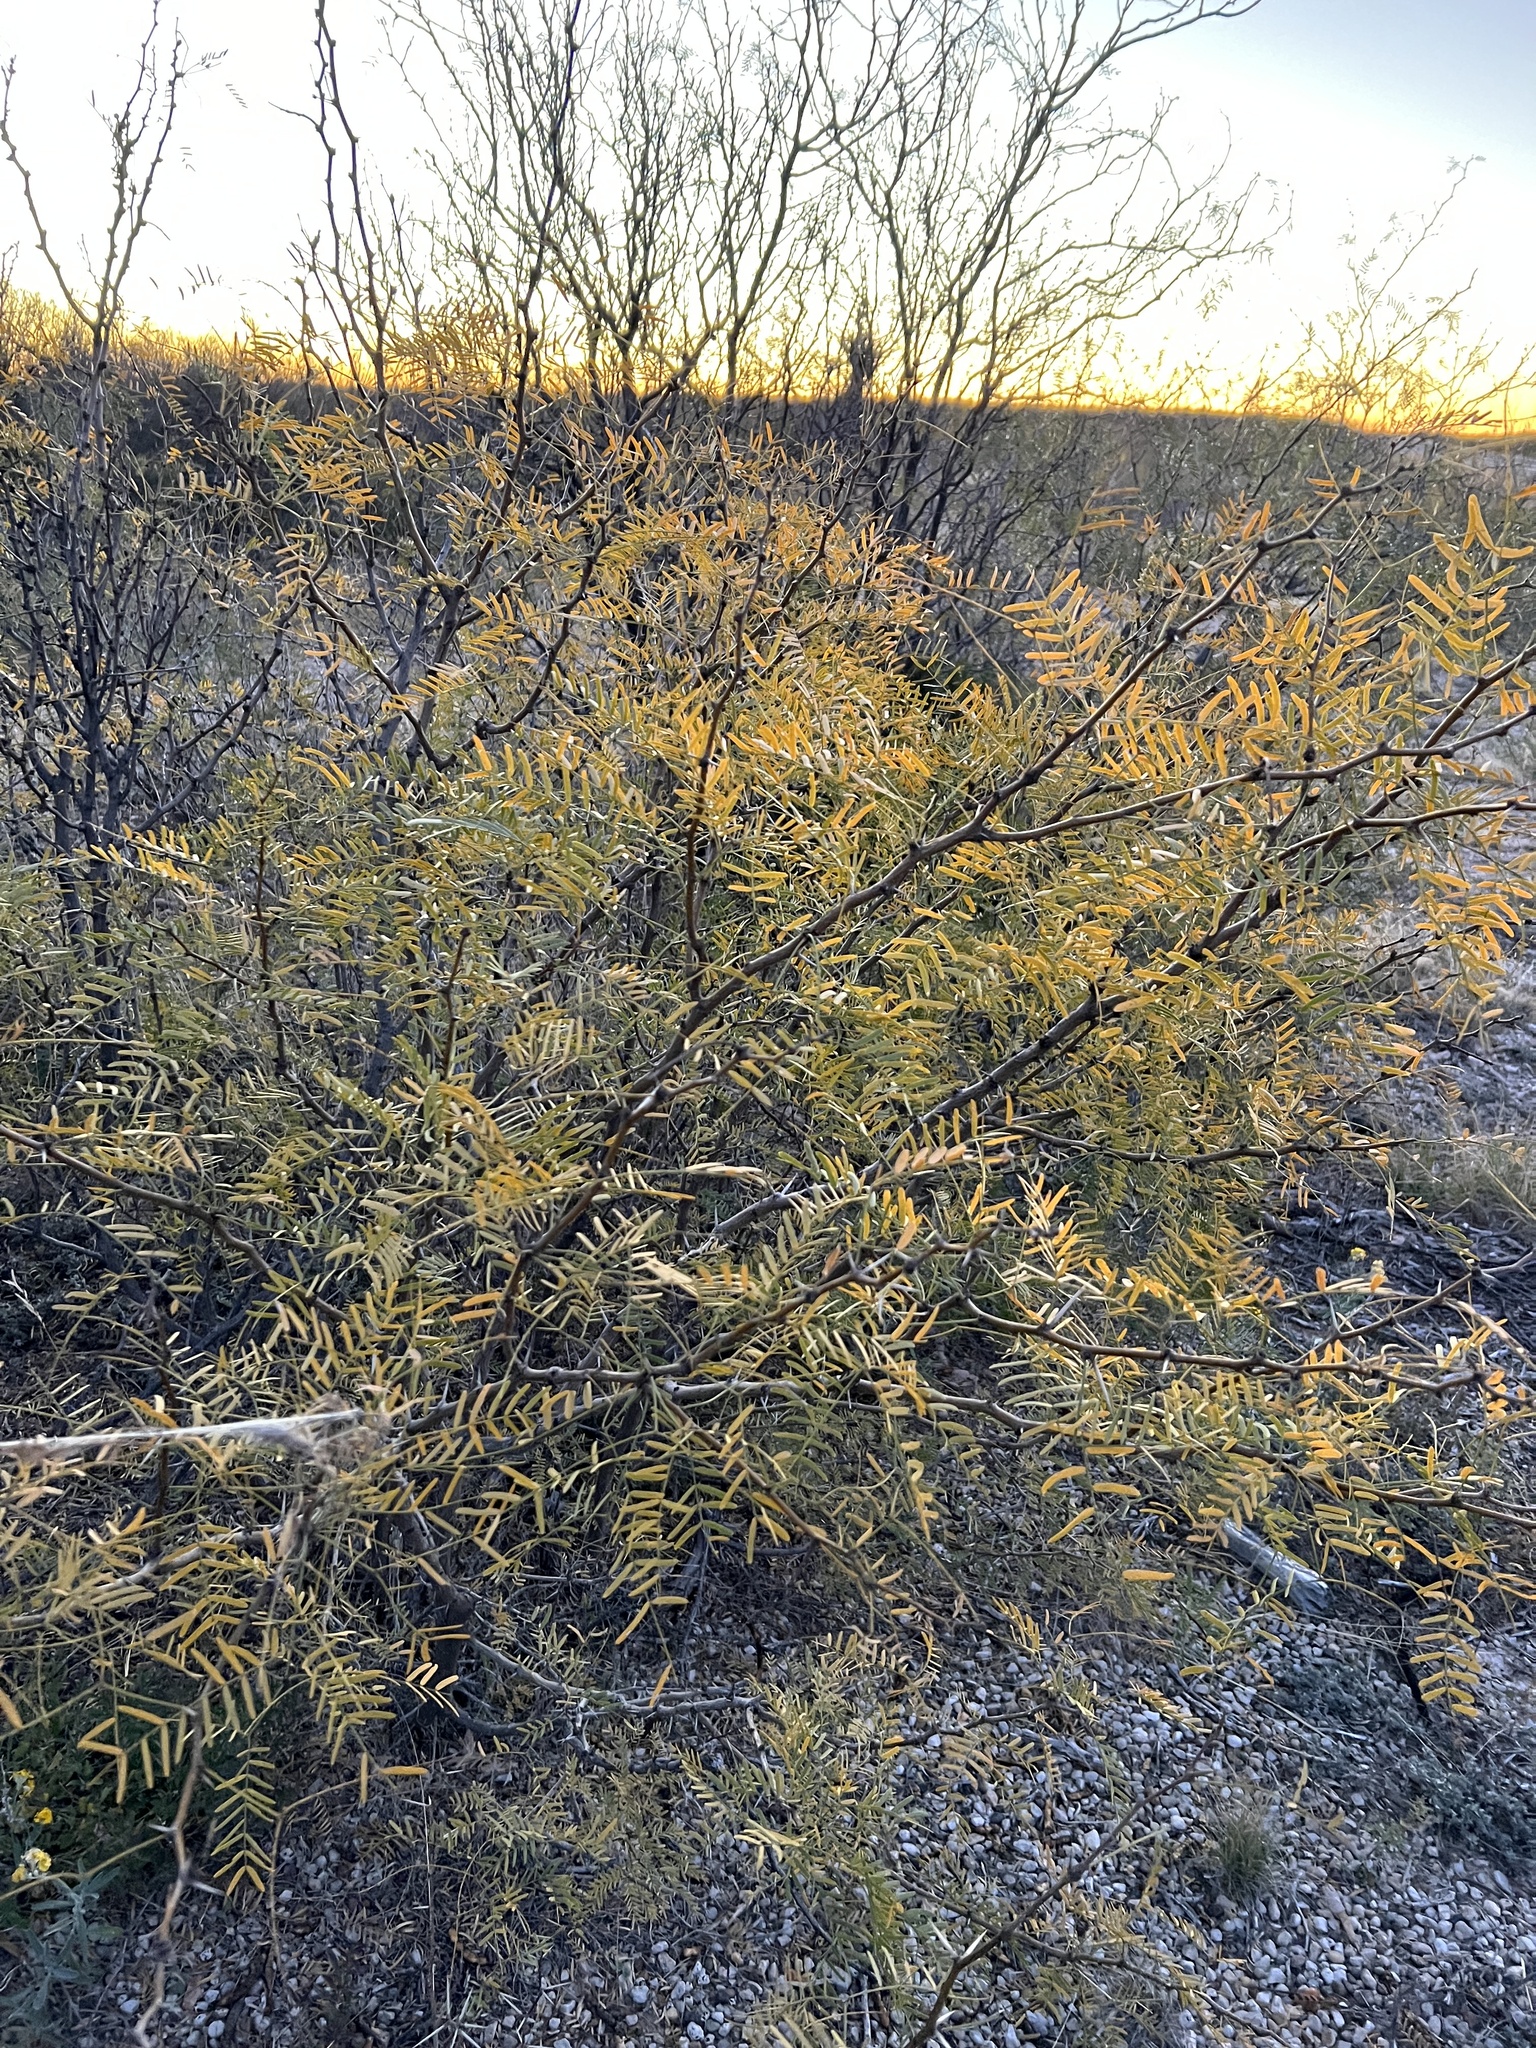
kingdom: Plantae
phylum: Tracheophyta
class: Magnoliopsida
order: Fabales
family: Fabaceae
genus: Prosopis
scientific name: Prosopis glandulosa
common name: Honey mesquite
